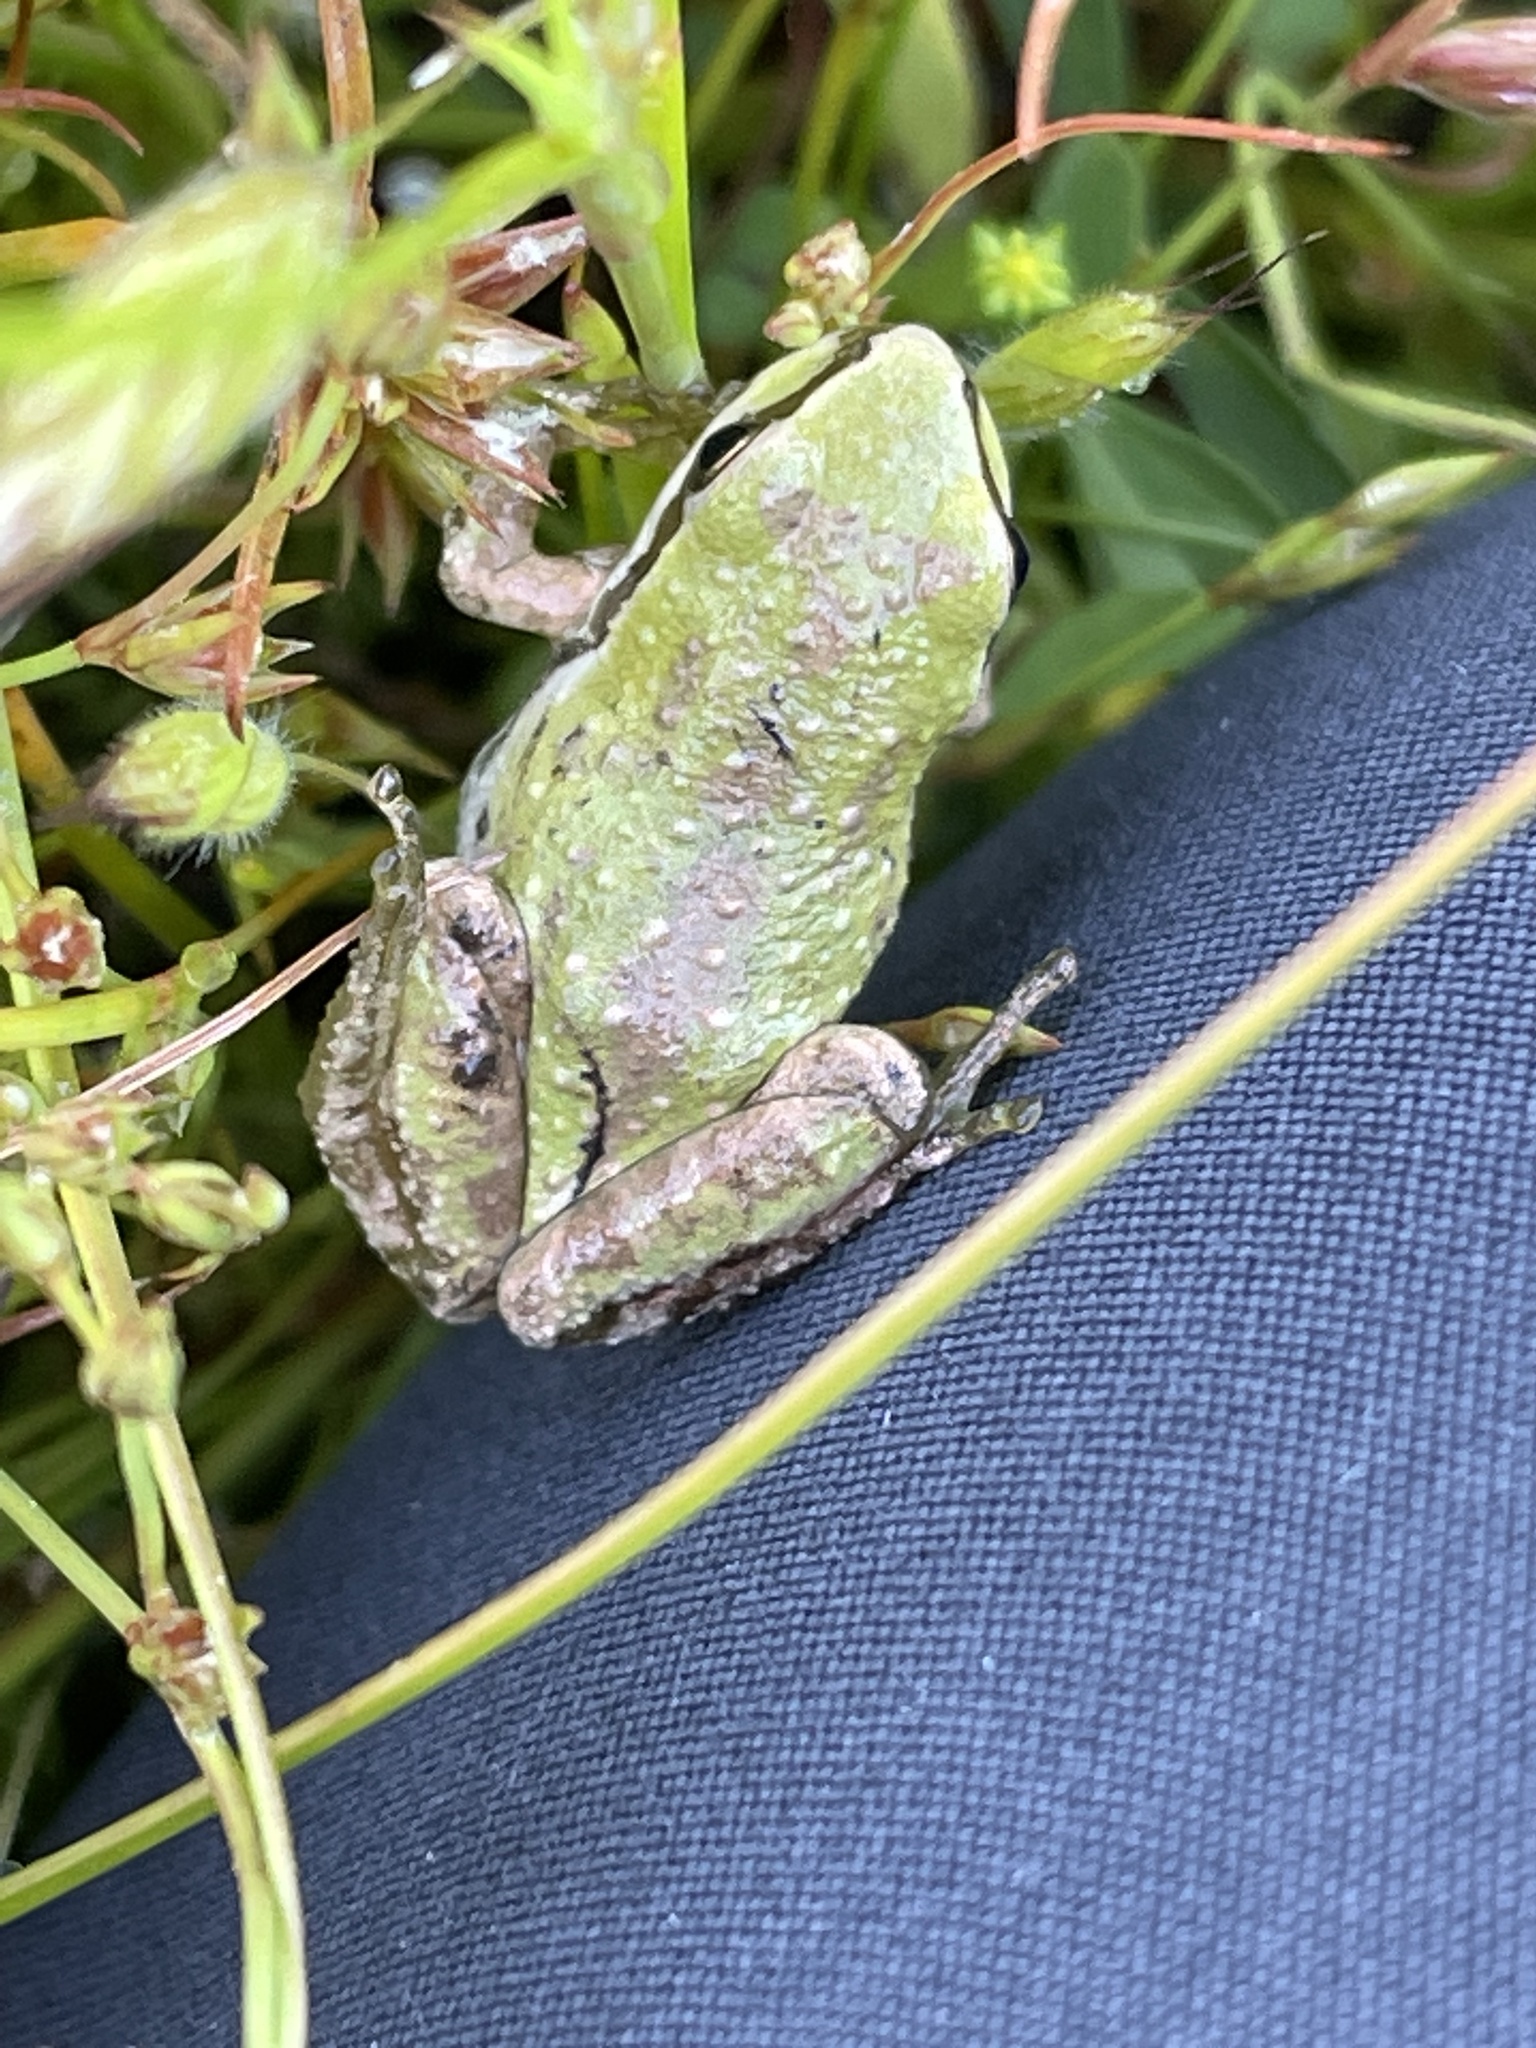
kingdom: Animalia
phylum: Chordata
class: Amphibia
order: Anura
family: Hylidae
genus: Pseudacris
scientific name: Pseudacris regilla
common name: Pacific chorus frog
